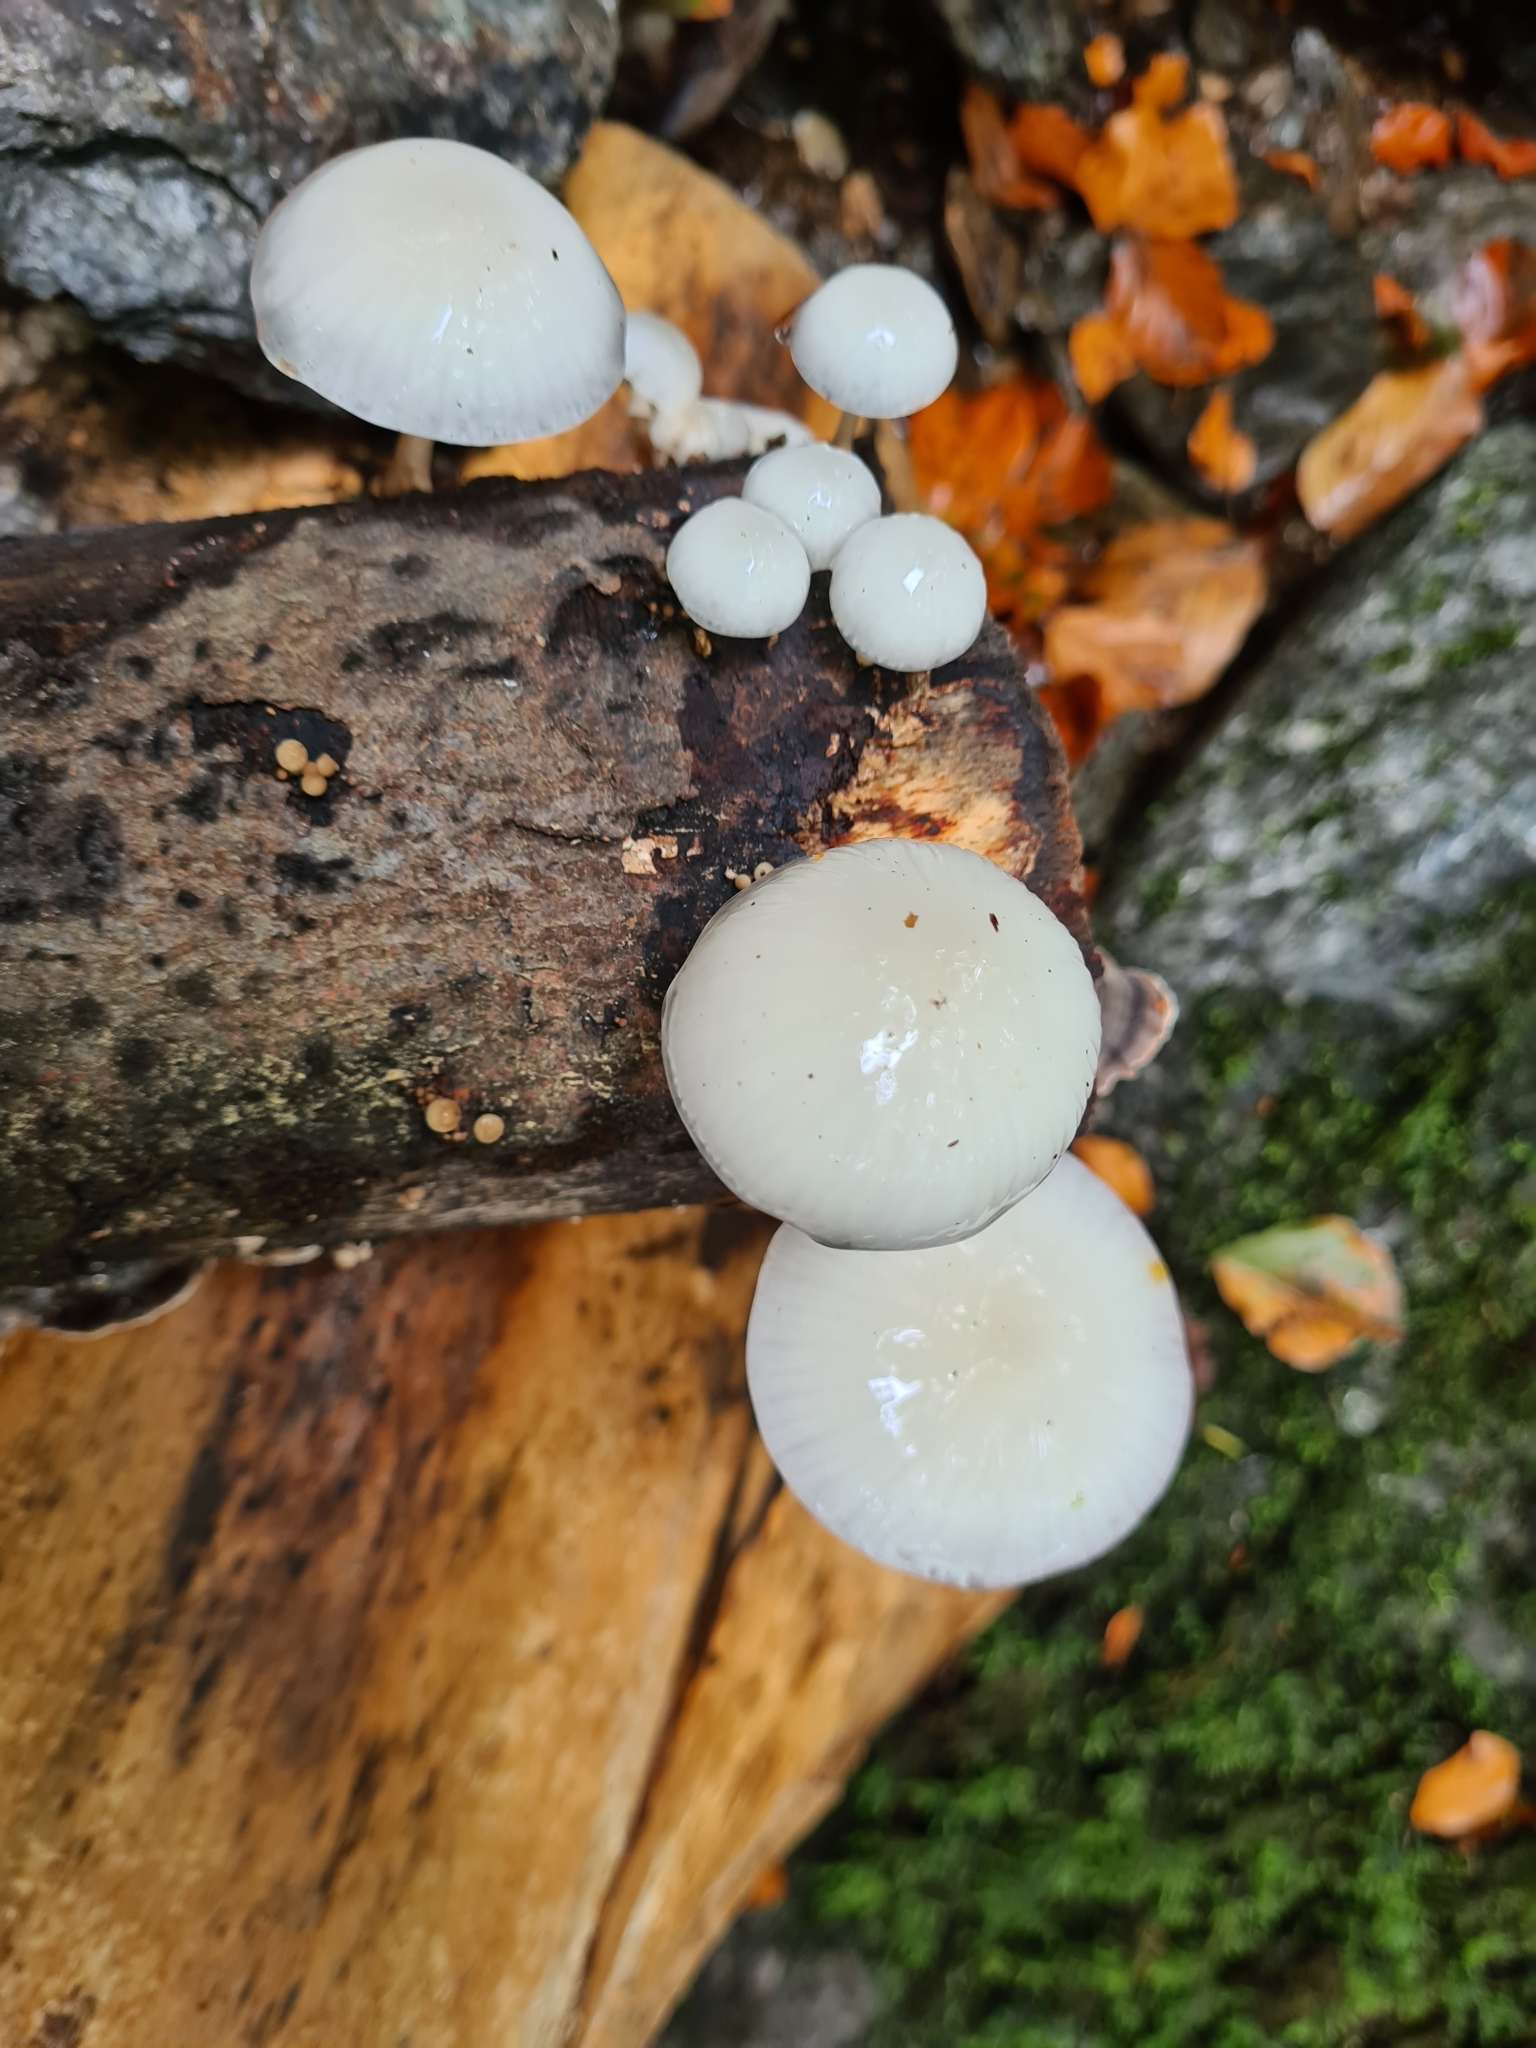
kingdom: Fungi
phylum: Basidiomycota
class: Agaricomycetes
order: Agaricales
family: Physalacriaceae
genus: Mucidula
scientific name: Mucidula mucida
